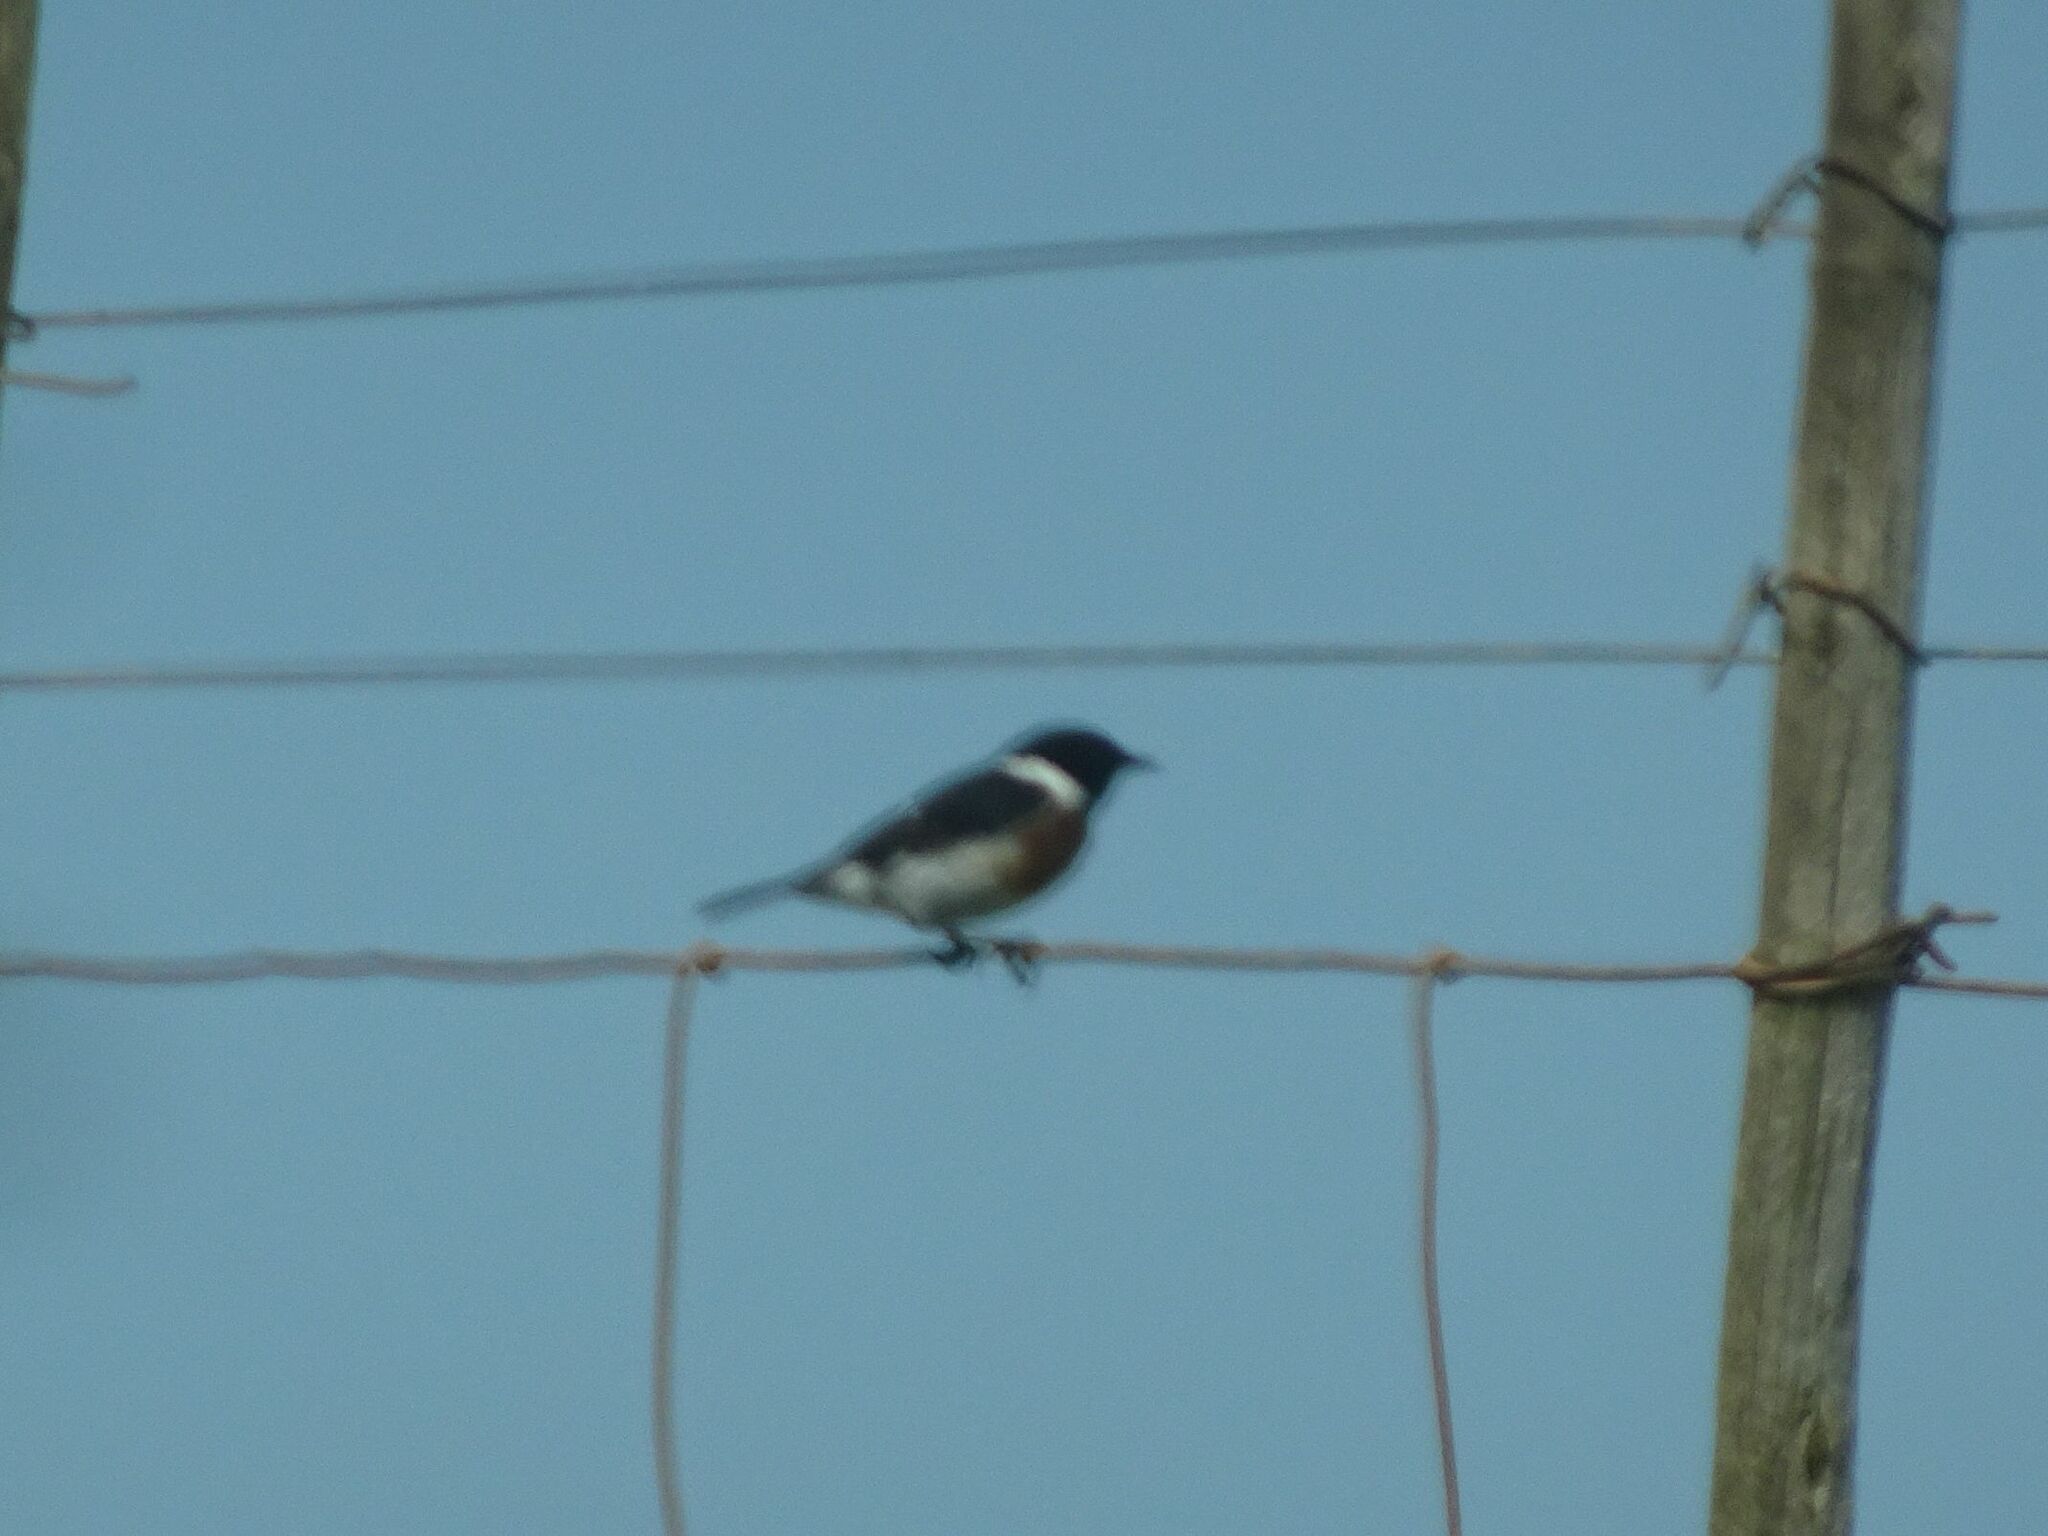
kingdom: Animalia
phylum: Chordata
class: Aves
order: Passeriformes
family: Muscicapidae
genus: Saxicola
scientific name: Saxicola torquatus
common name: African stonechat
